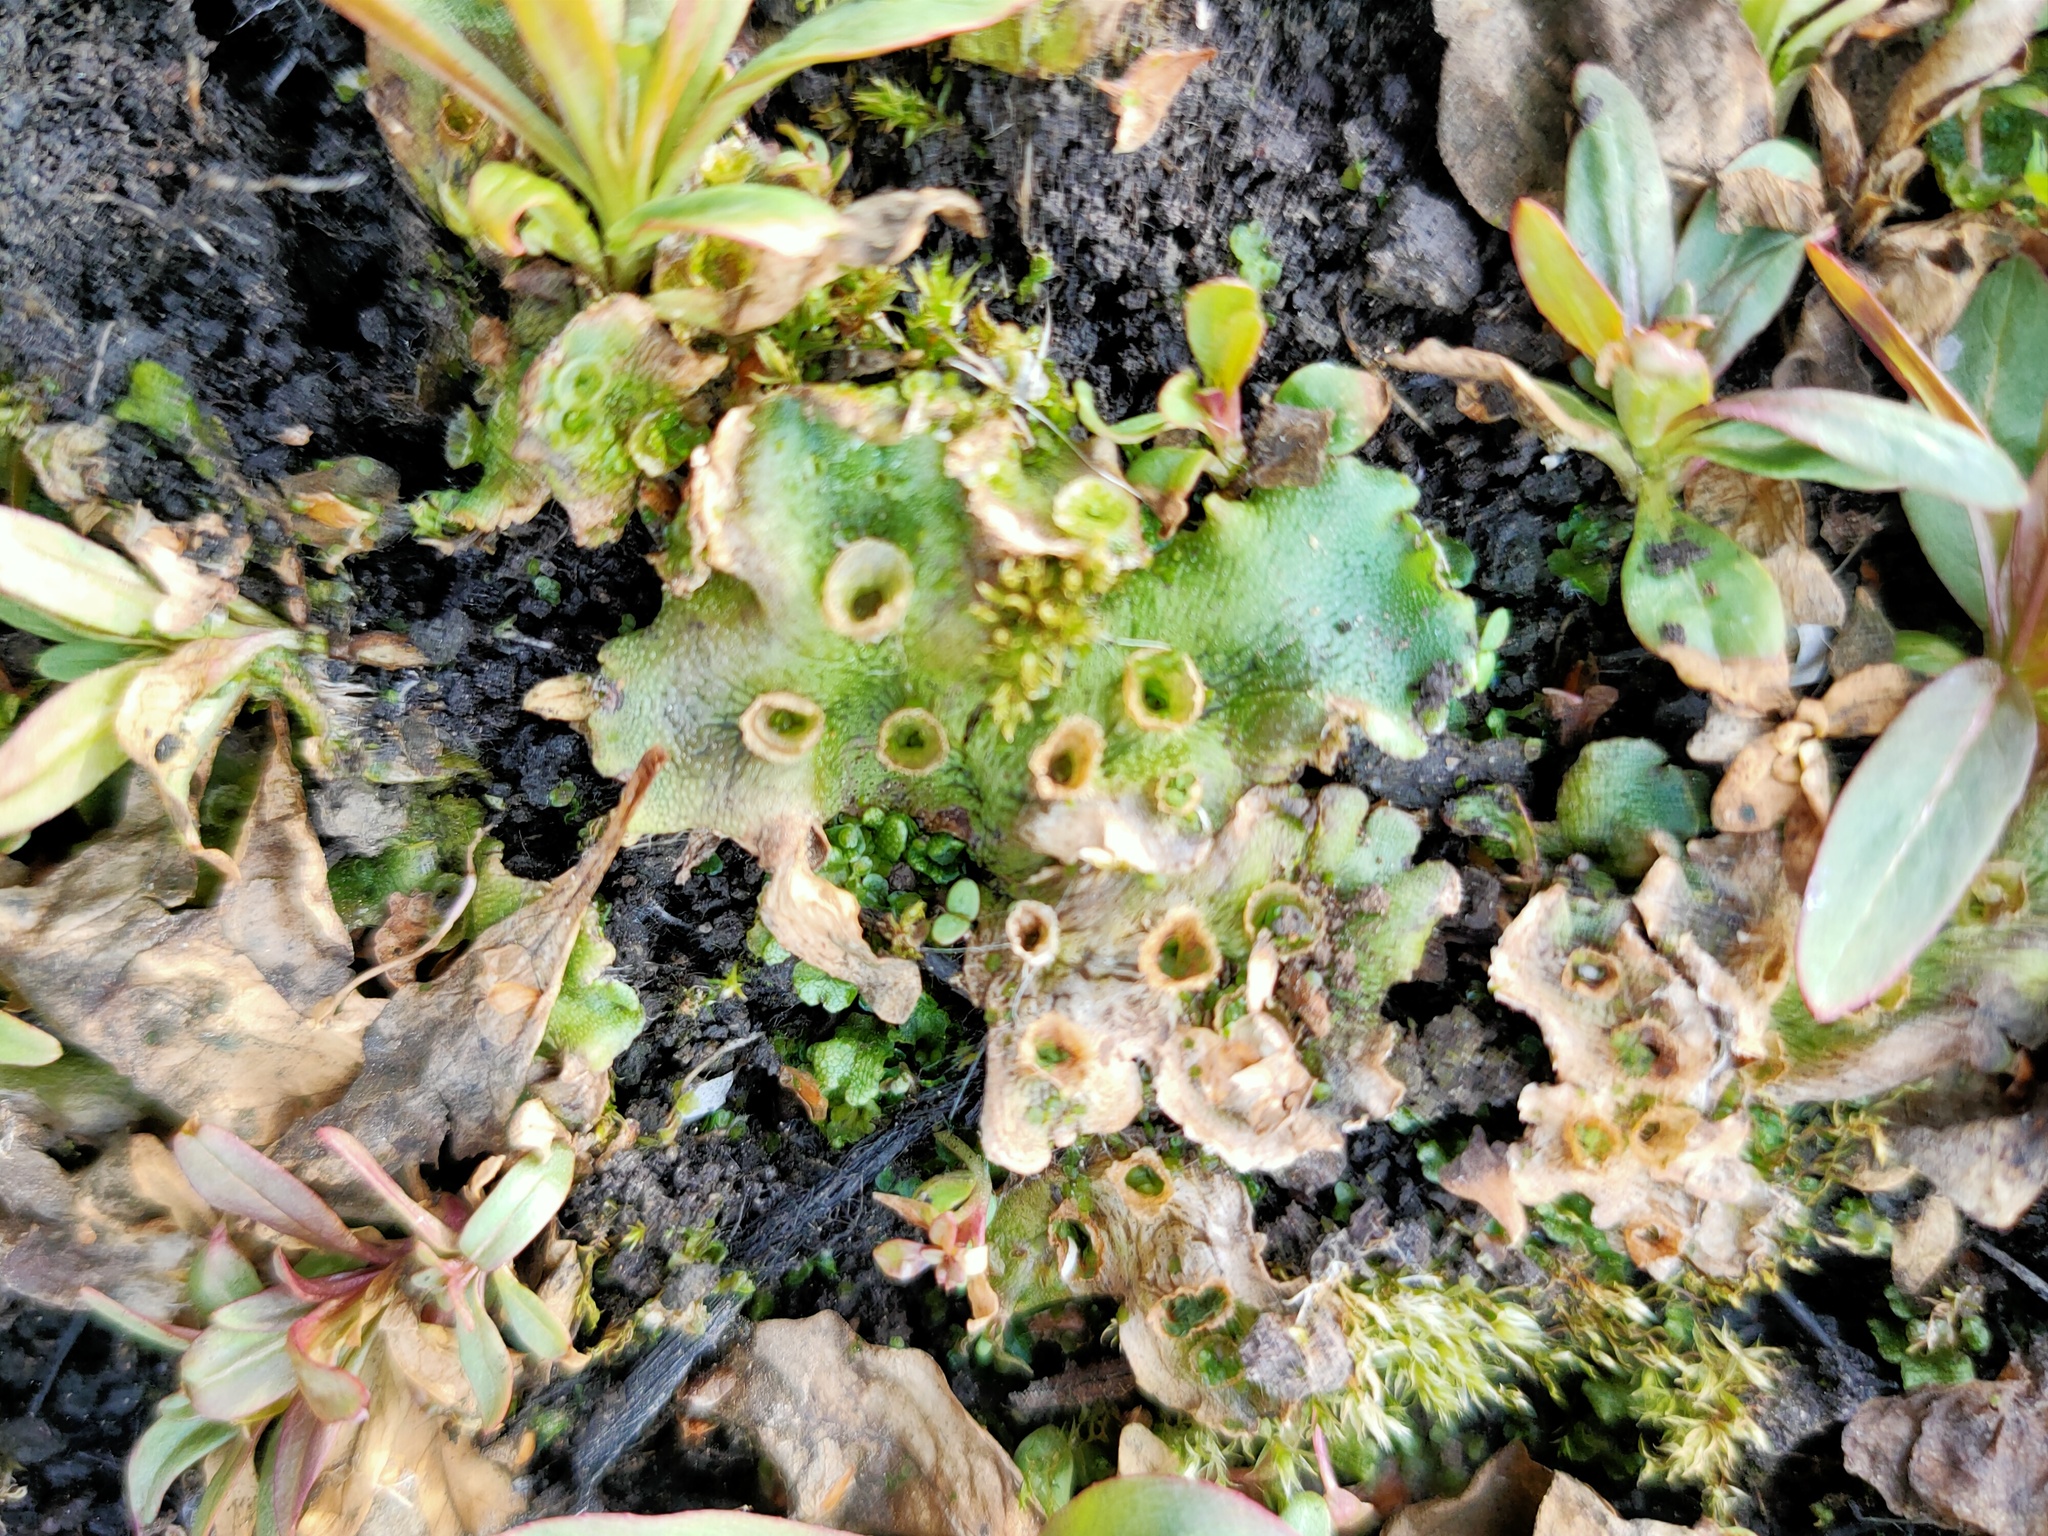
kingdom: Plantae
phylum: Marchantiophyta
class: Marchantiopsida
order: Marchantiales
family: Marchantiaceae
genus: Marchantia
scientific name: Marchantia polymorpha
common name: Common liverwort
